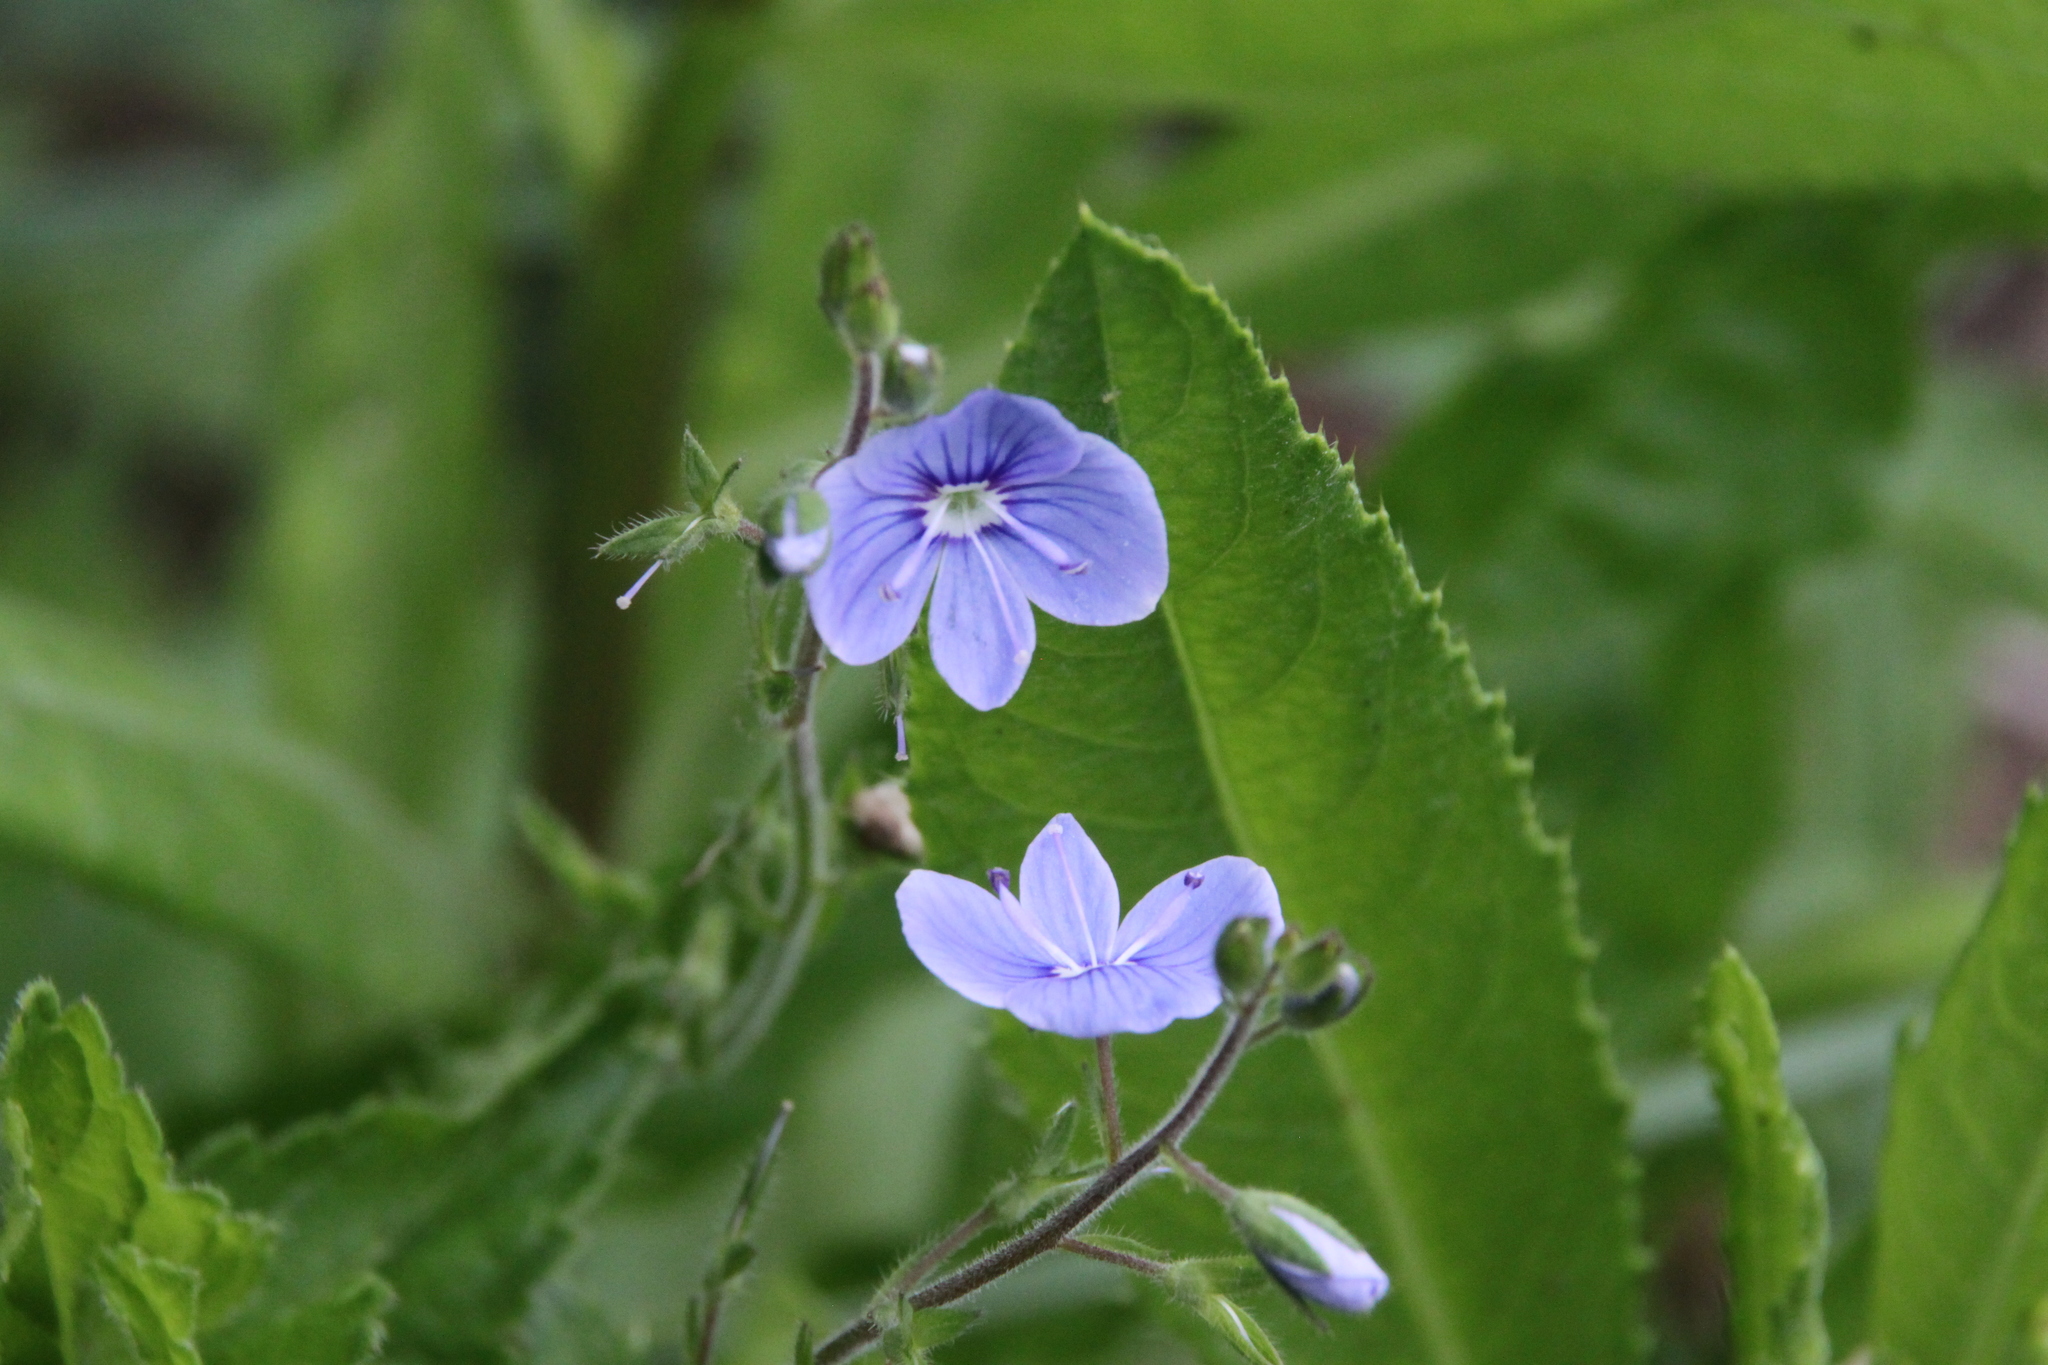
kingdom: Plantae
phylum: Tracheophyta
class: Magnoliopsida
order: Lamiales
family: Plantaginaceae
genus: Veronica
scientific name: Veronica chamaedrys
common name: Germander speedwell
